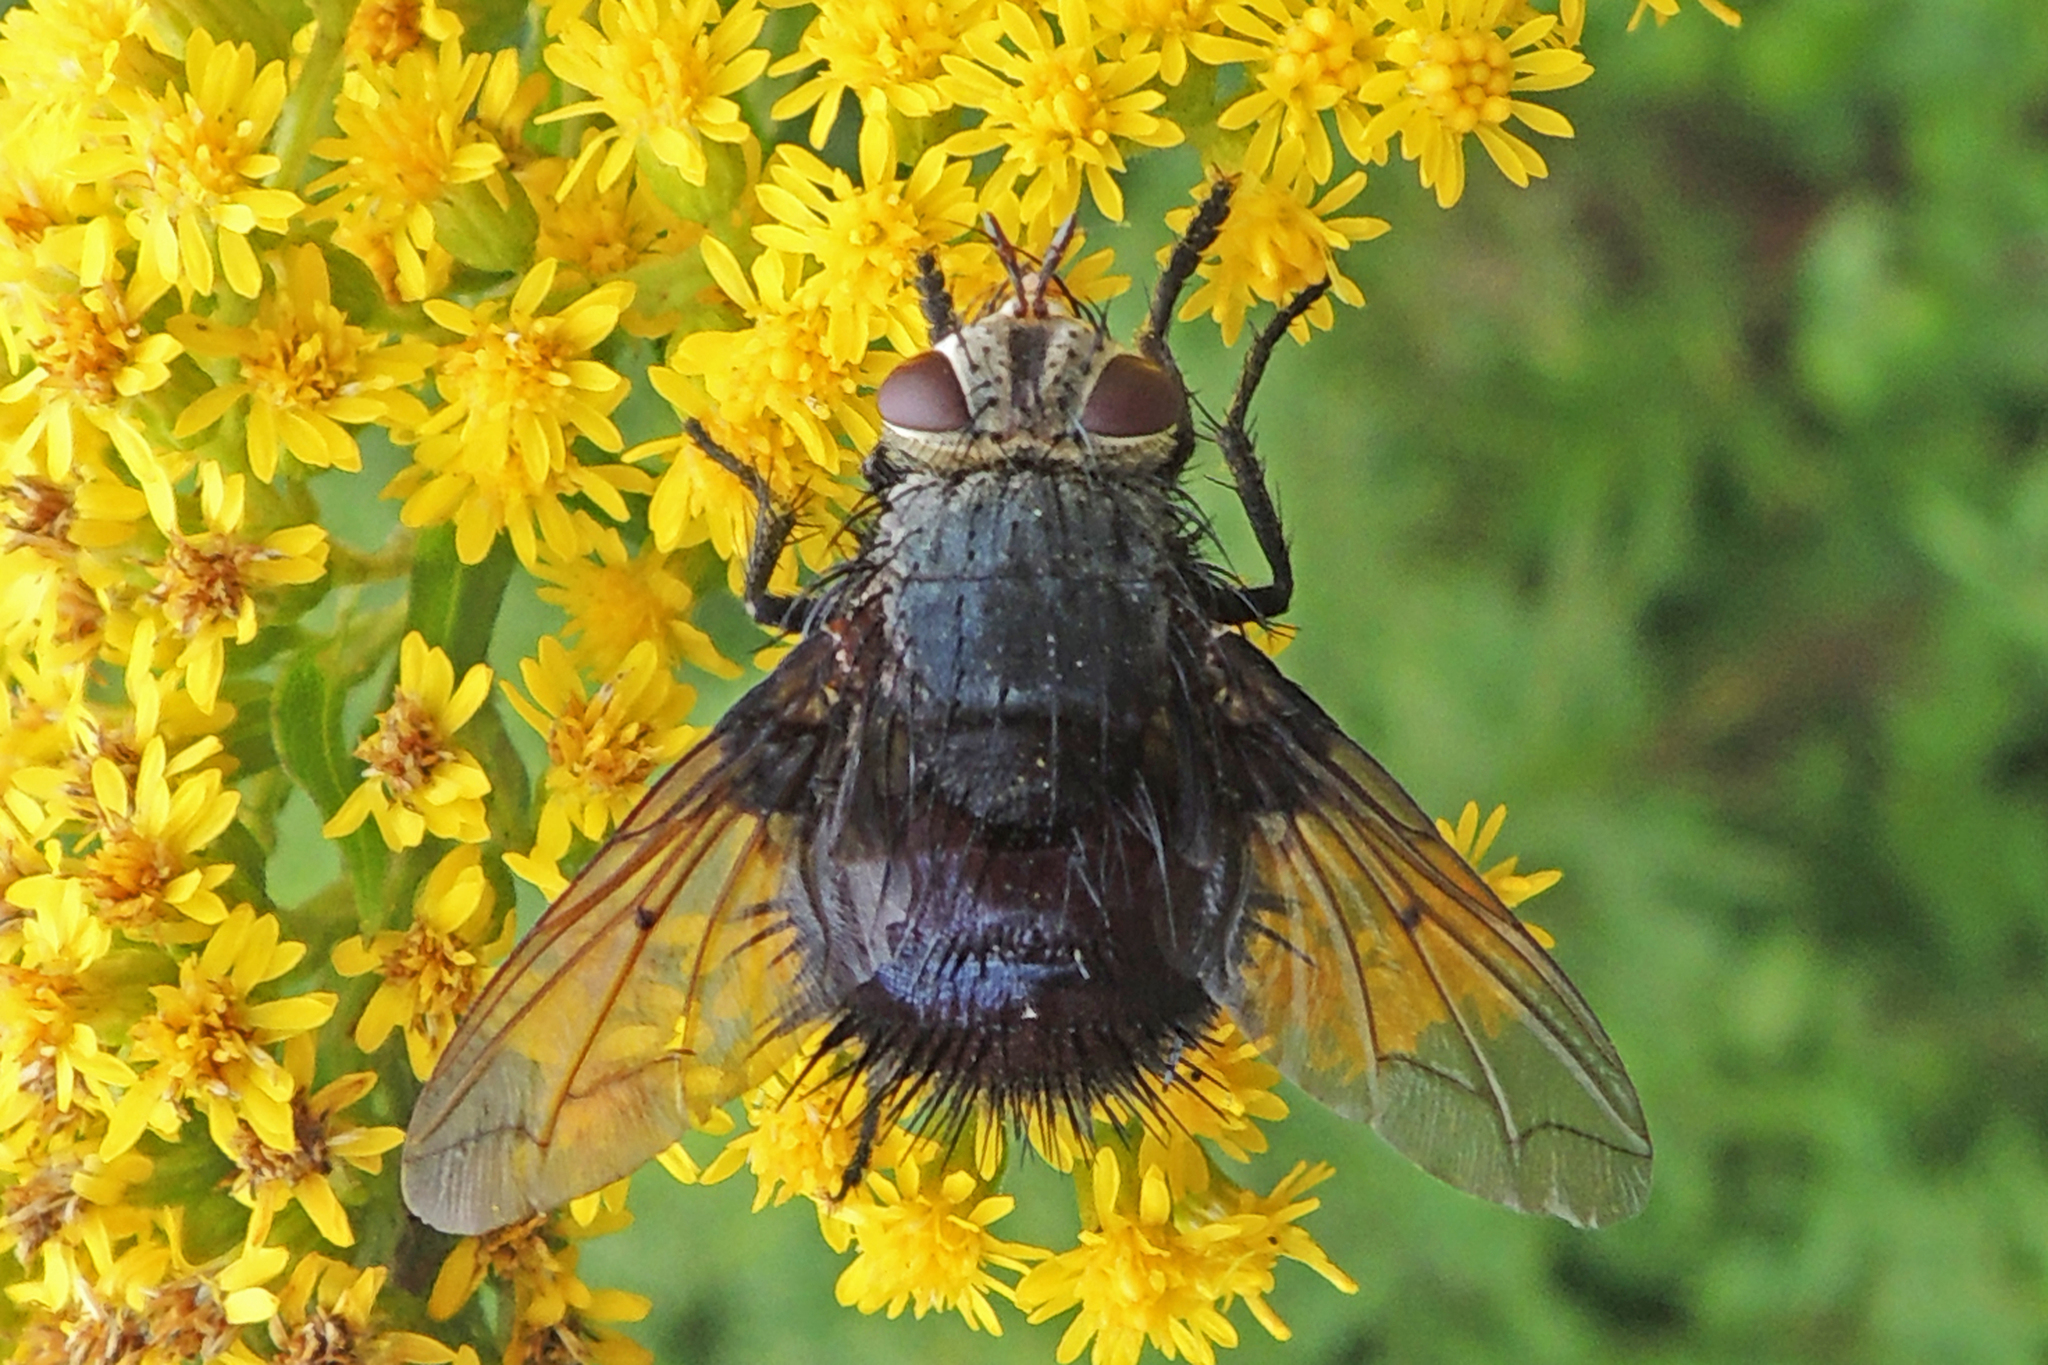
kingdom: Animalia
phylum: Arthropoda
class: Insecta
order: Diptera
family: Tachinidae
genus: Juriniopsis
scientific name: Juriniopsis adusta
